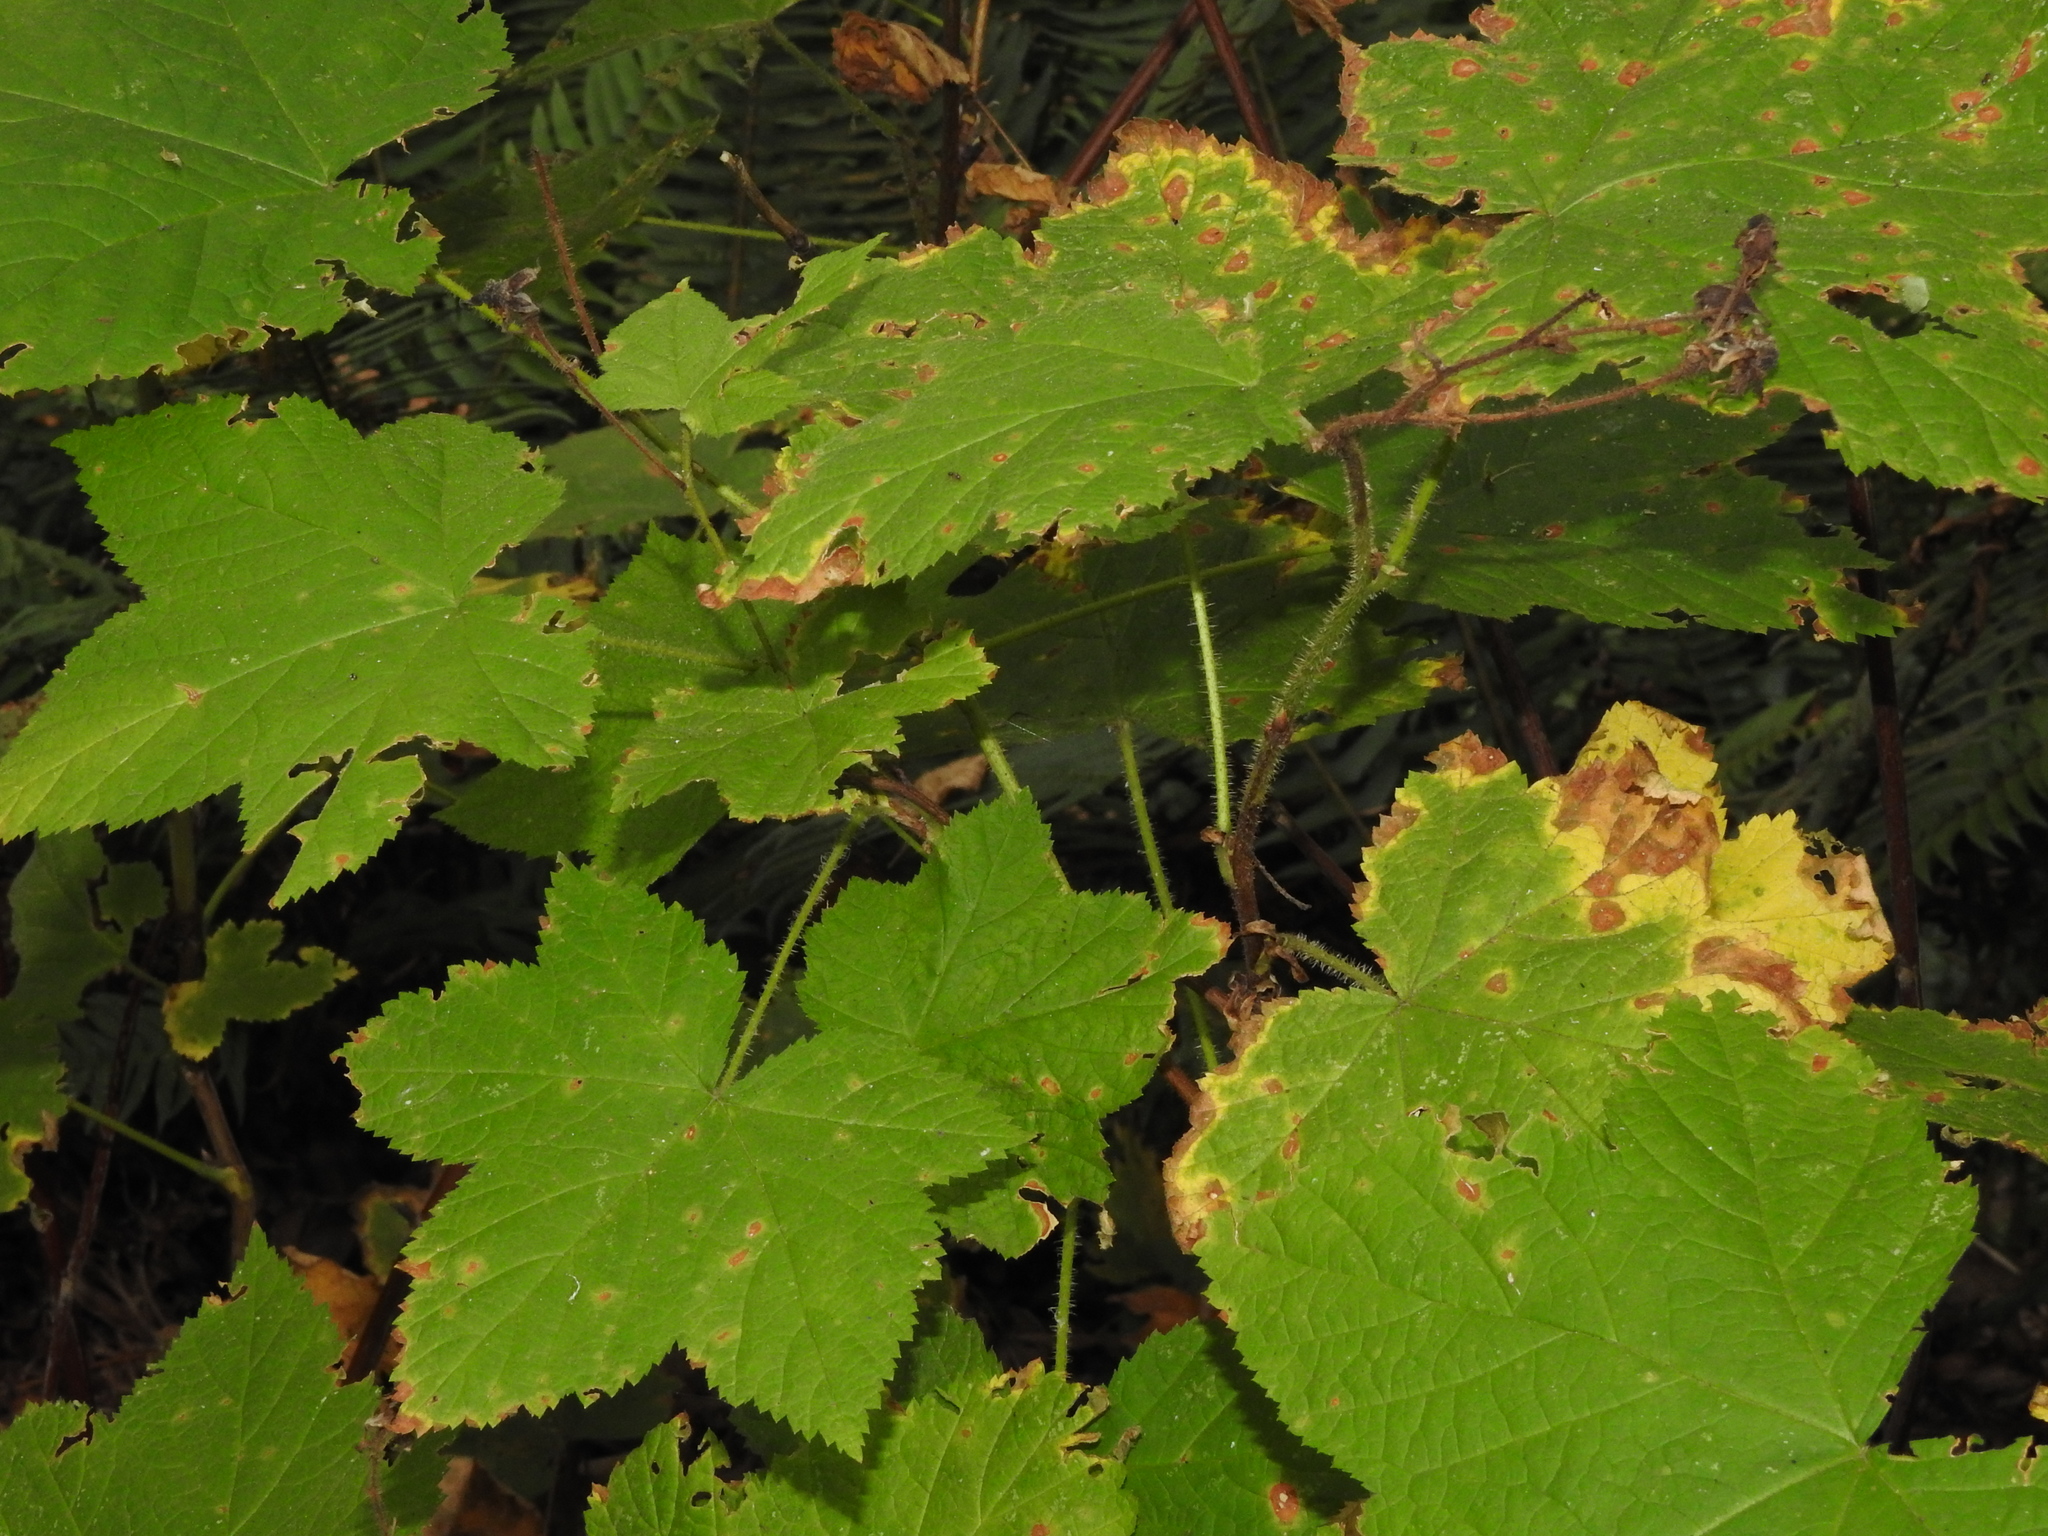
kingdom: Plantae
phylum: Tracheophyta
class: Magnoliopsida
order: Rosales
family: Rosaceae
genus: Rubus
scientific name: Rubus parviflorus
